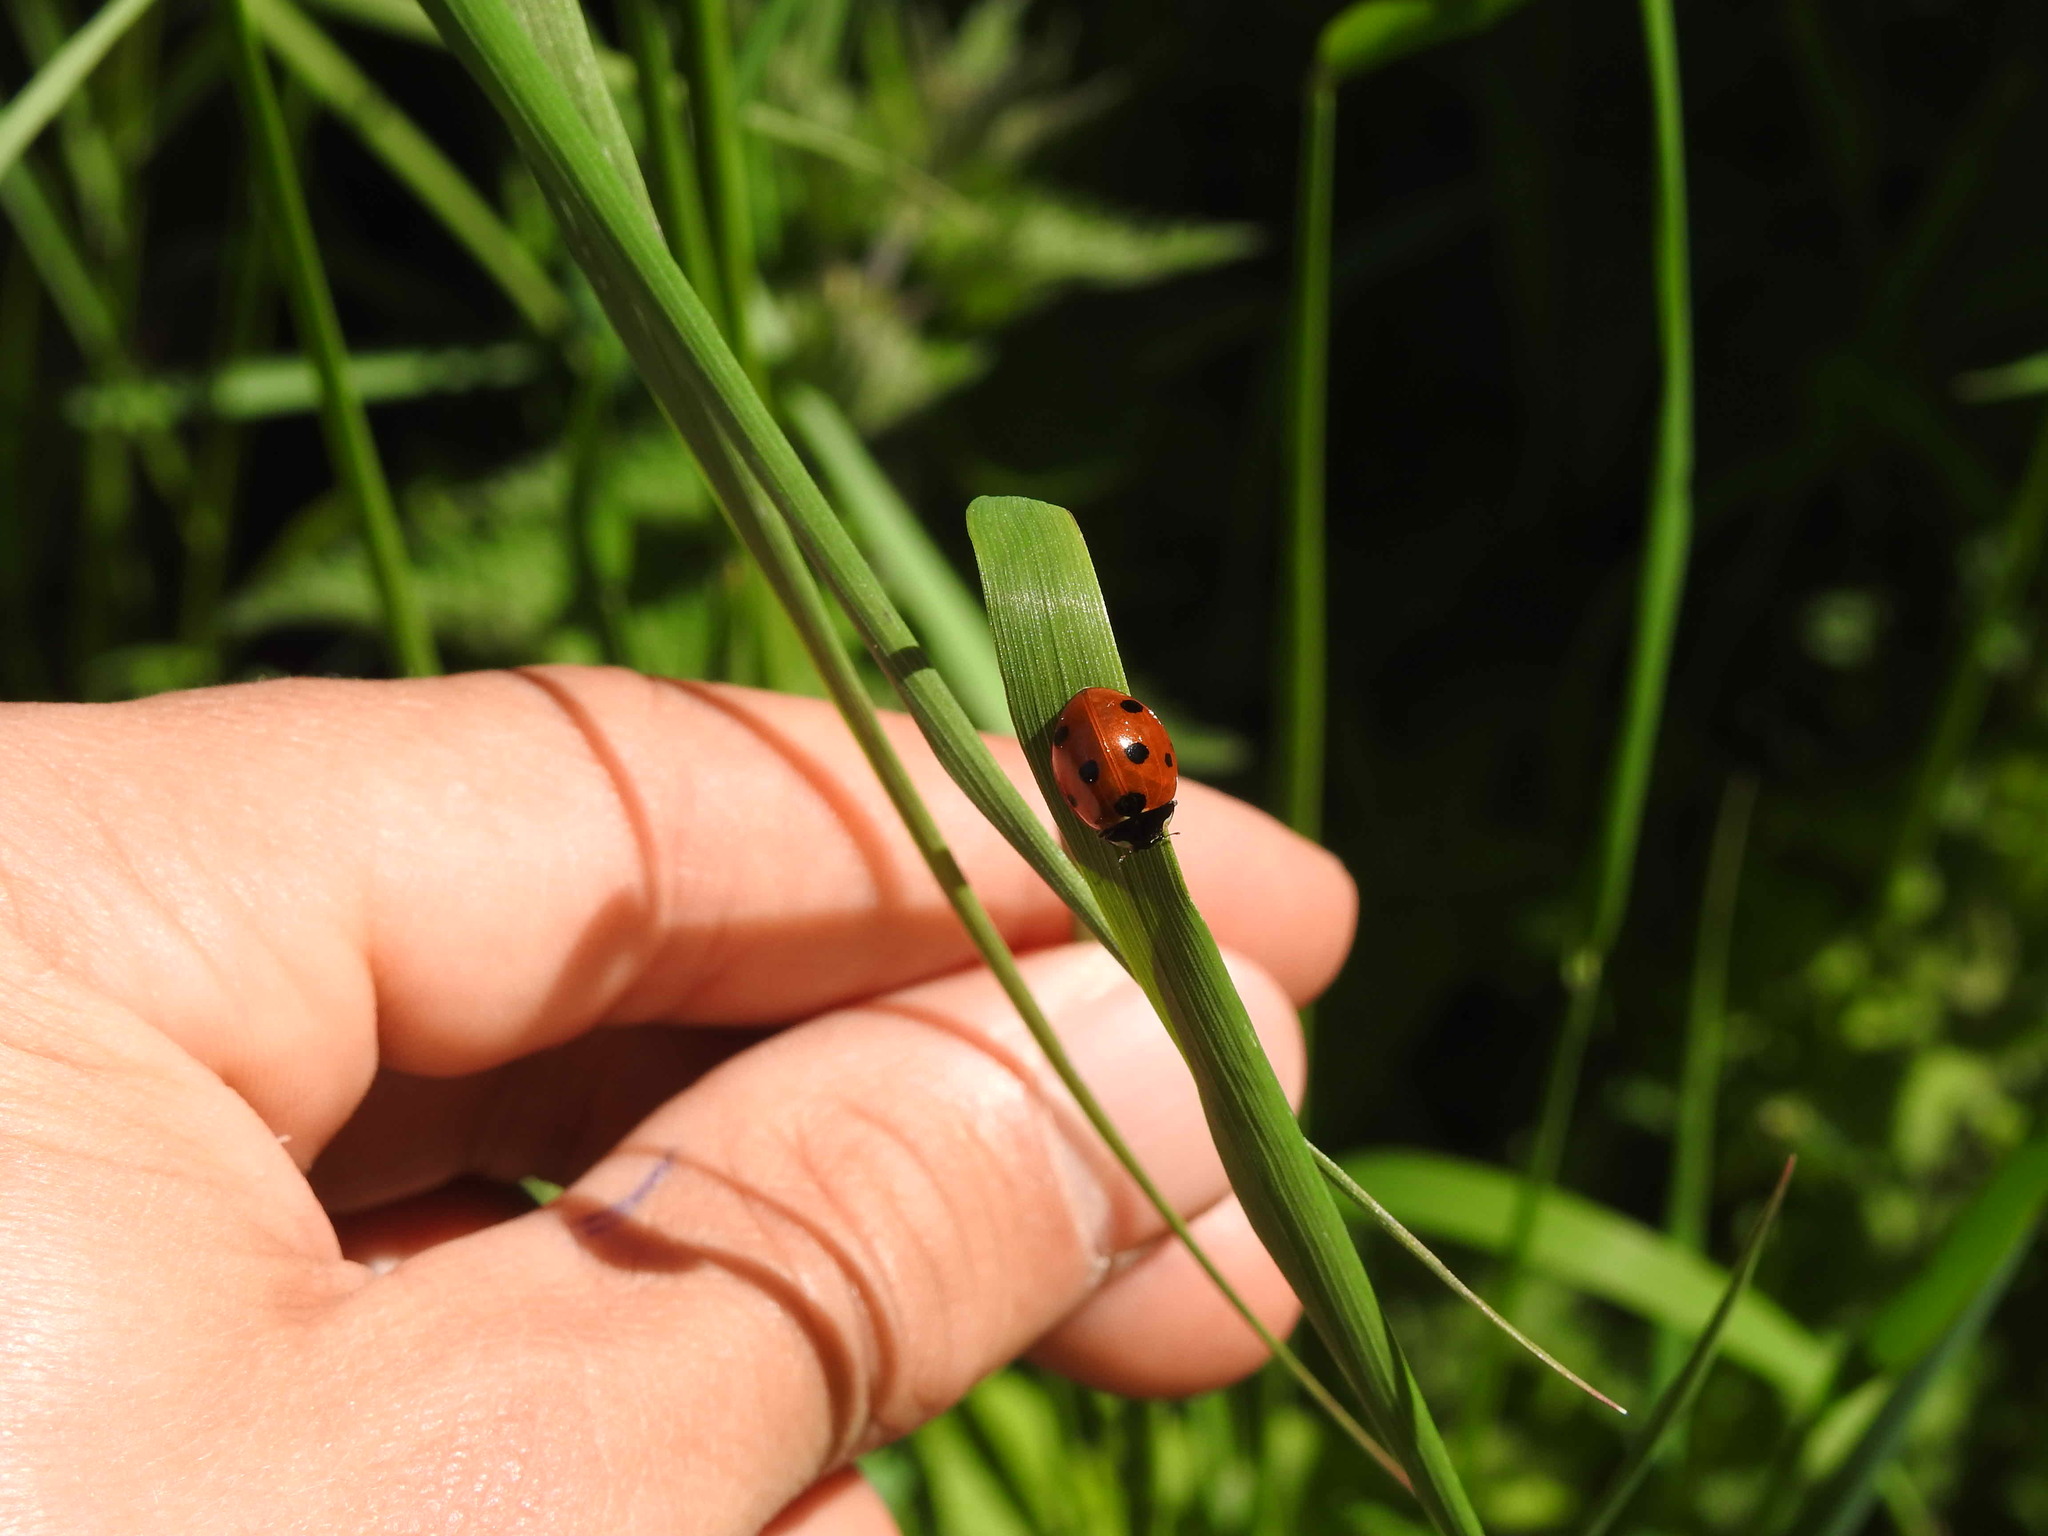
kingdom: Animalia
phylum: Arthropoda
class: Insecta
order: Coleoptera
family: Coccinellidae
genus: Coccinella
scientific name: Coccinella septempunctata
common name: Sevenspotted lady beetle
